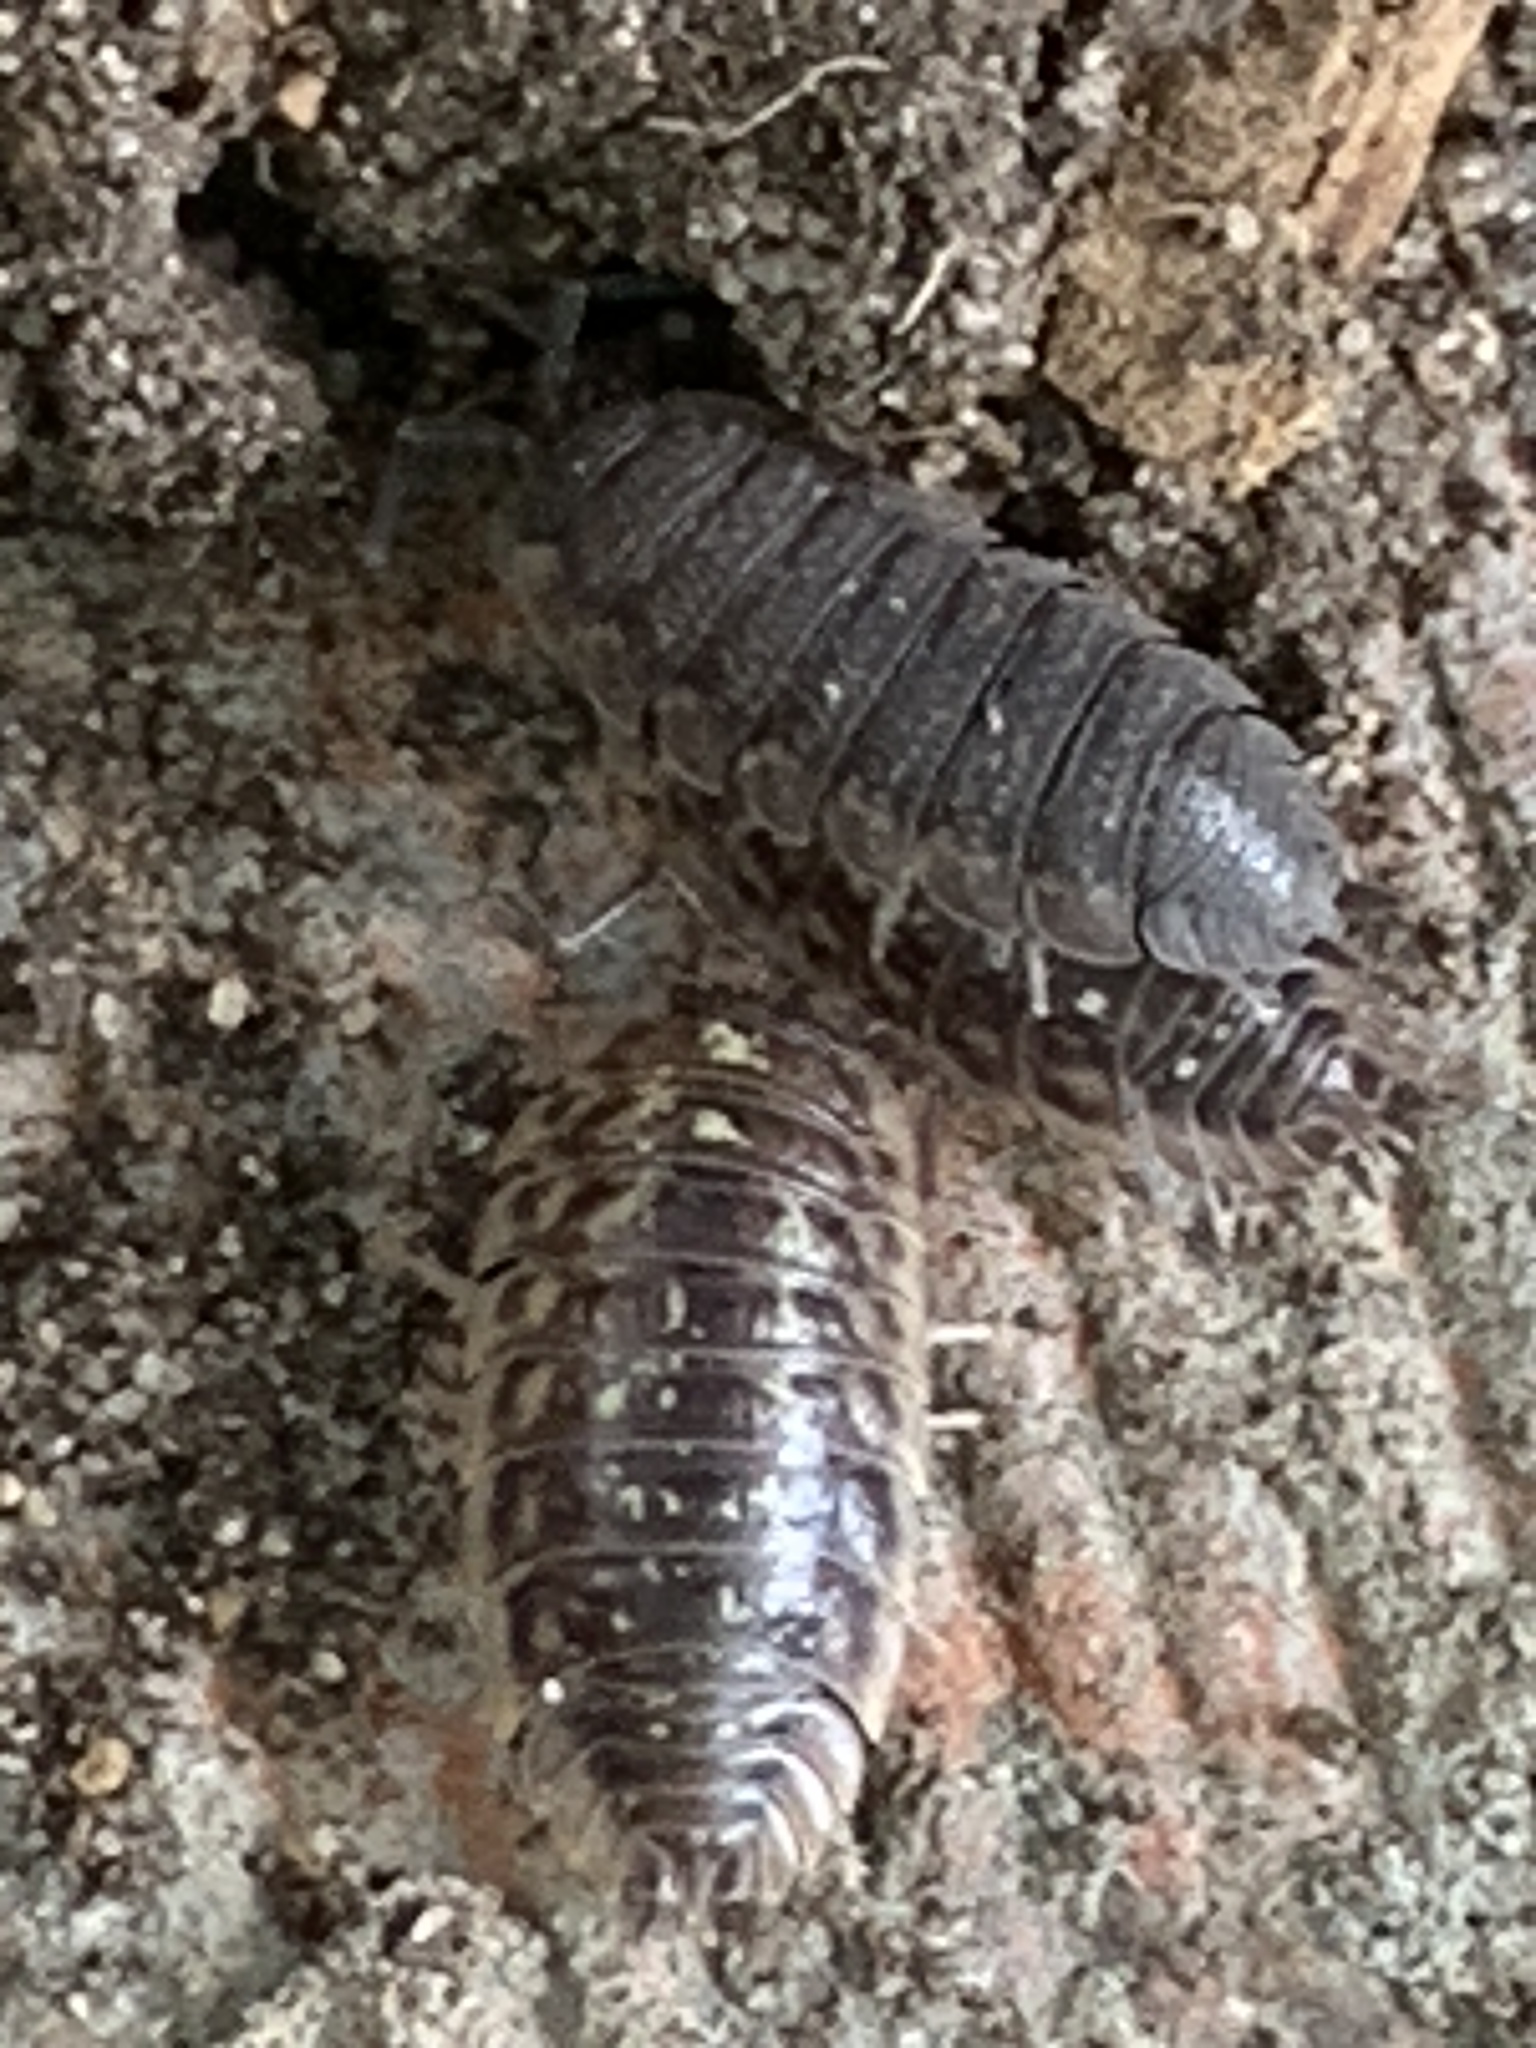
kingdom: Animalia
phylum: Arthropoda
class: Malacostraca
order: Isopoda
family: Oniscidae
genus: Oniscus
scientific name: Oniscus asellus
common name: Common shiny woodlouse
